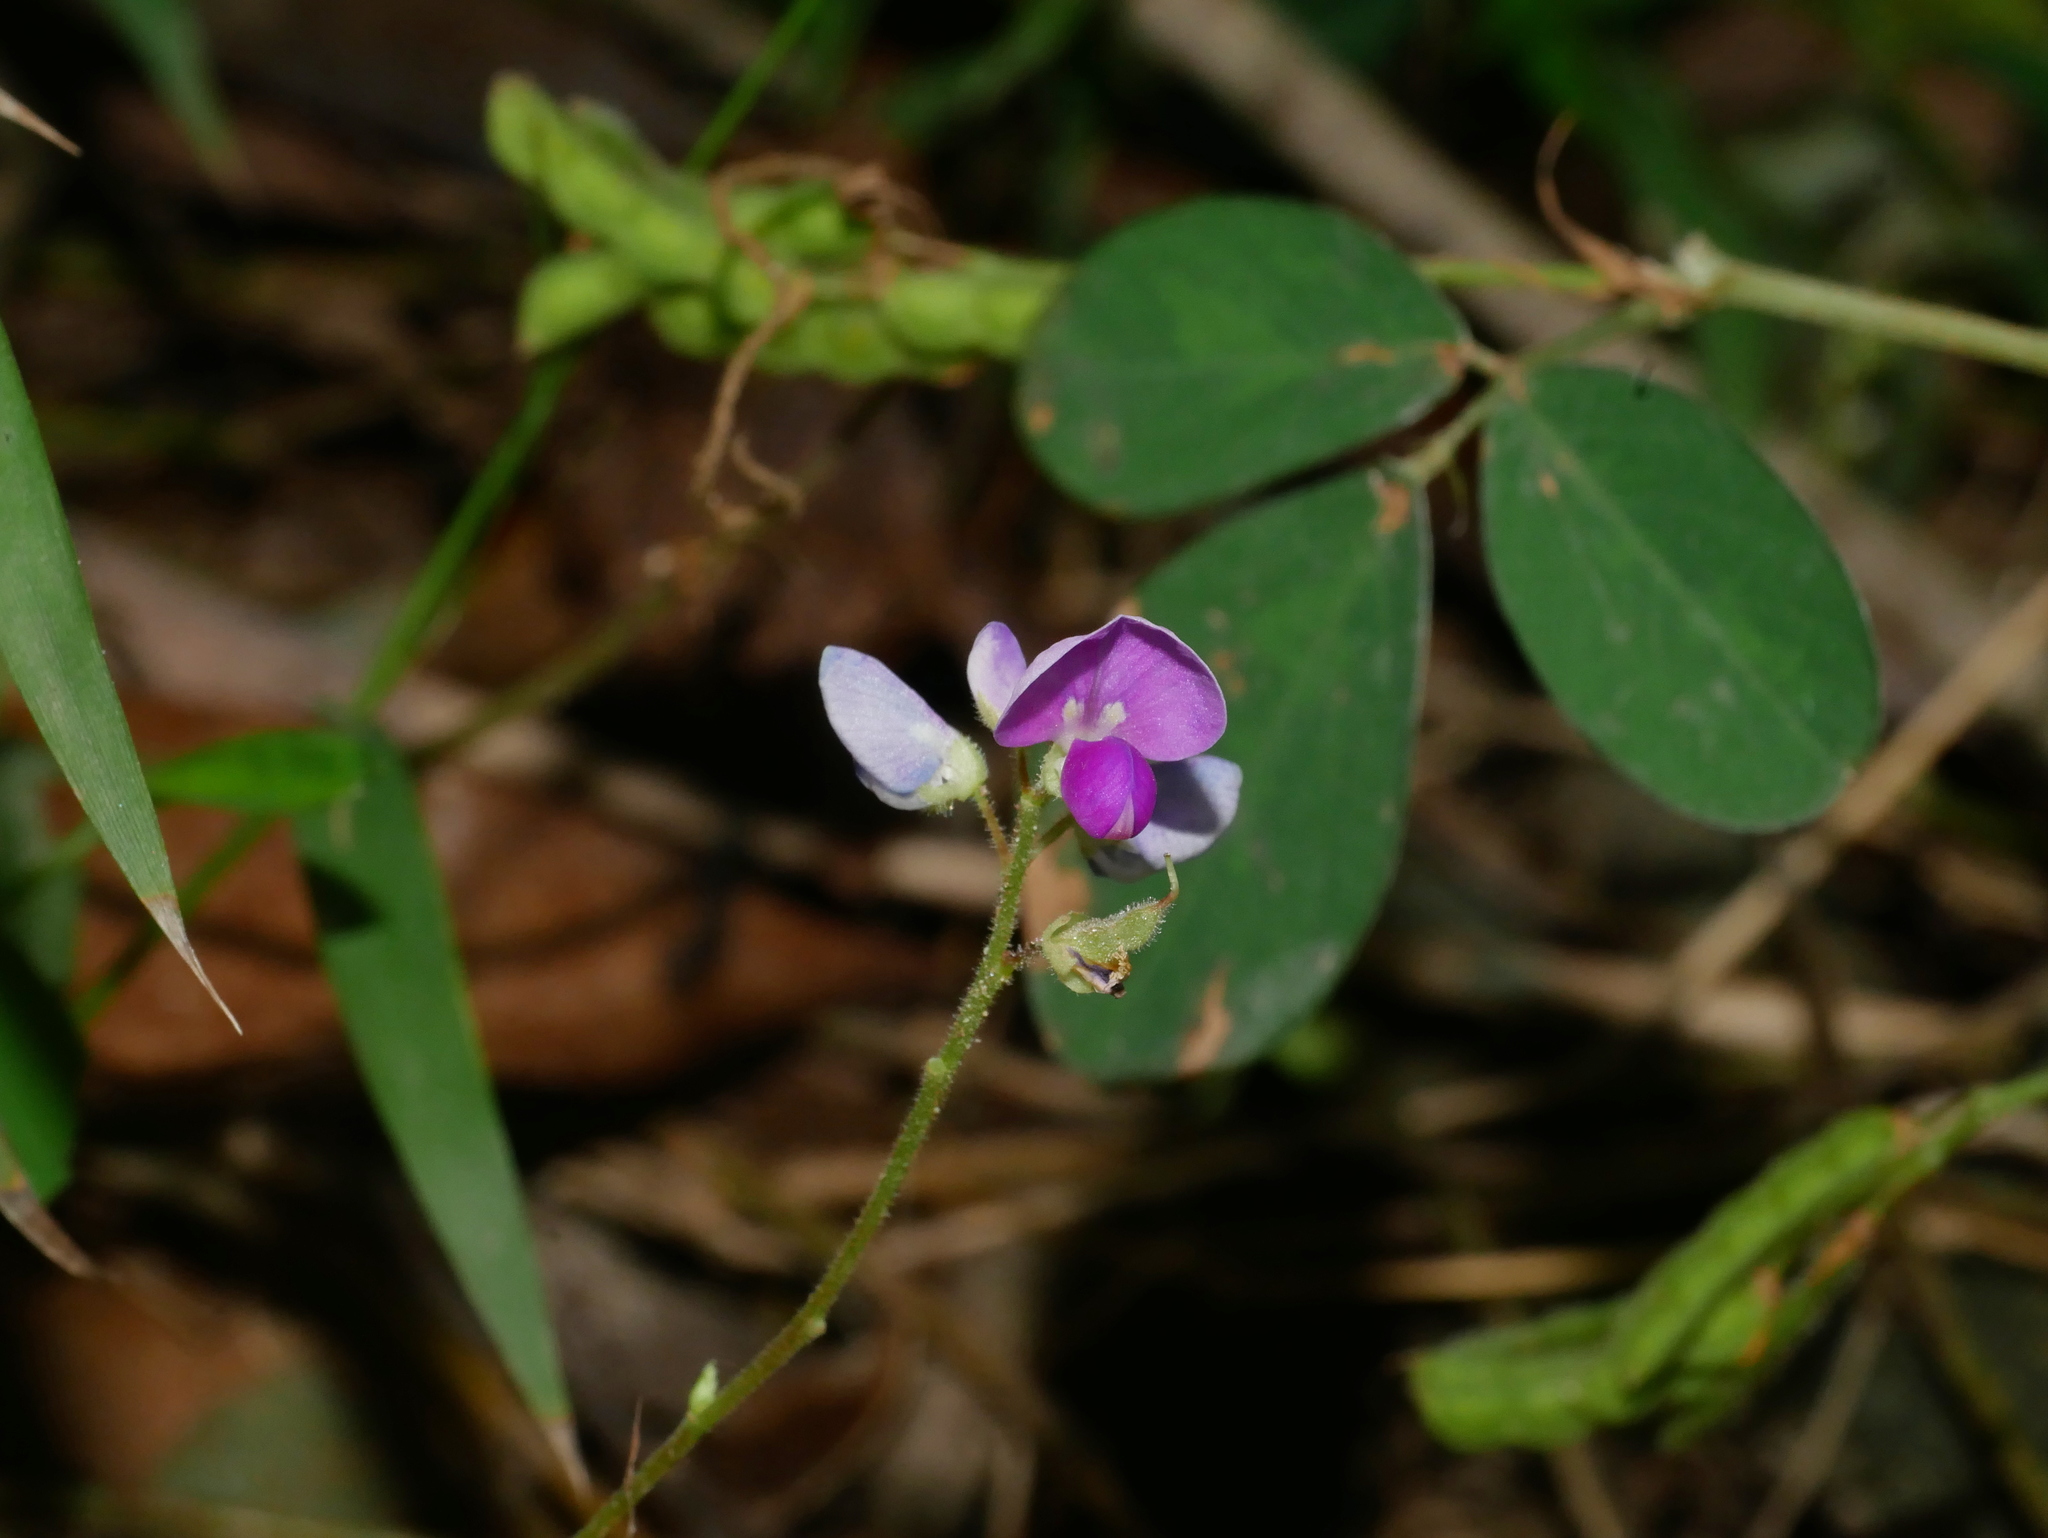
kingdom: Plantae
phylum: Tracheophyta
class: Magnoliopsida
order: Fabales
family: Fabaceae
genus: Grona
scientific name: Grona heterocarpos
